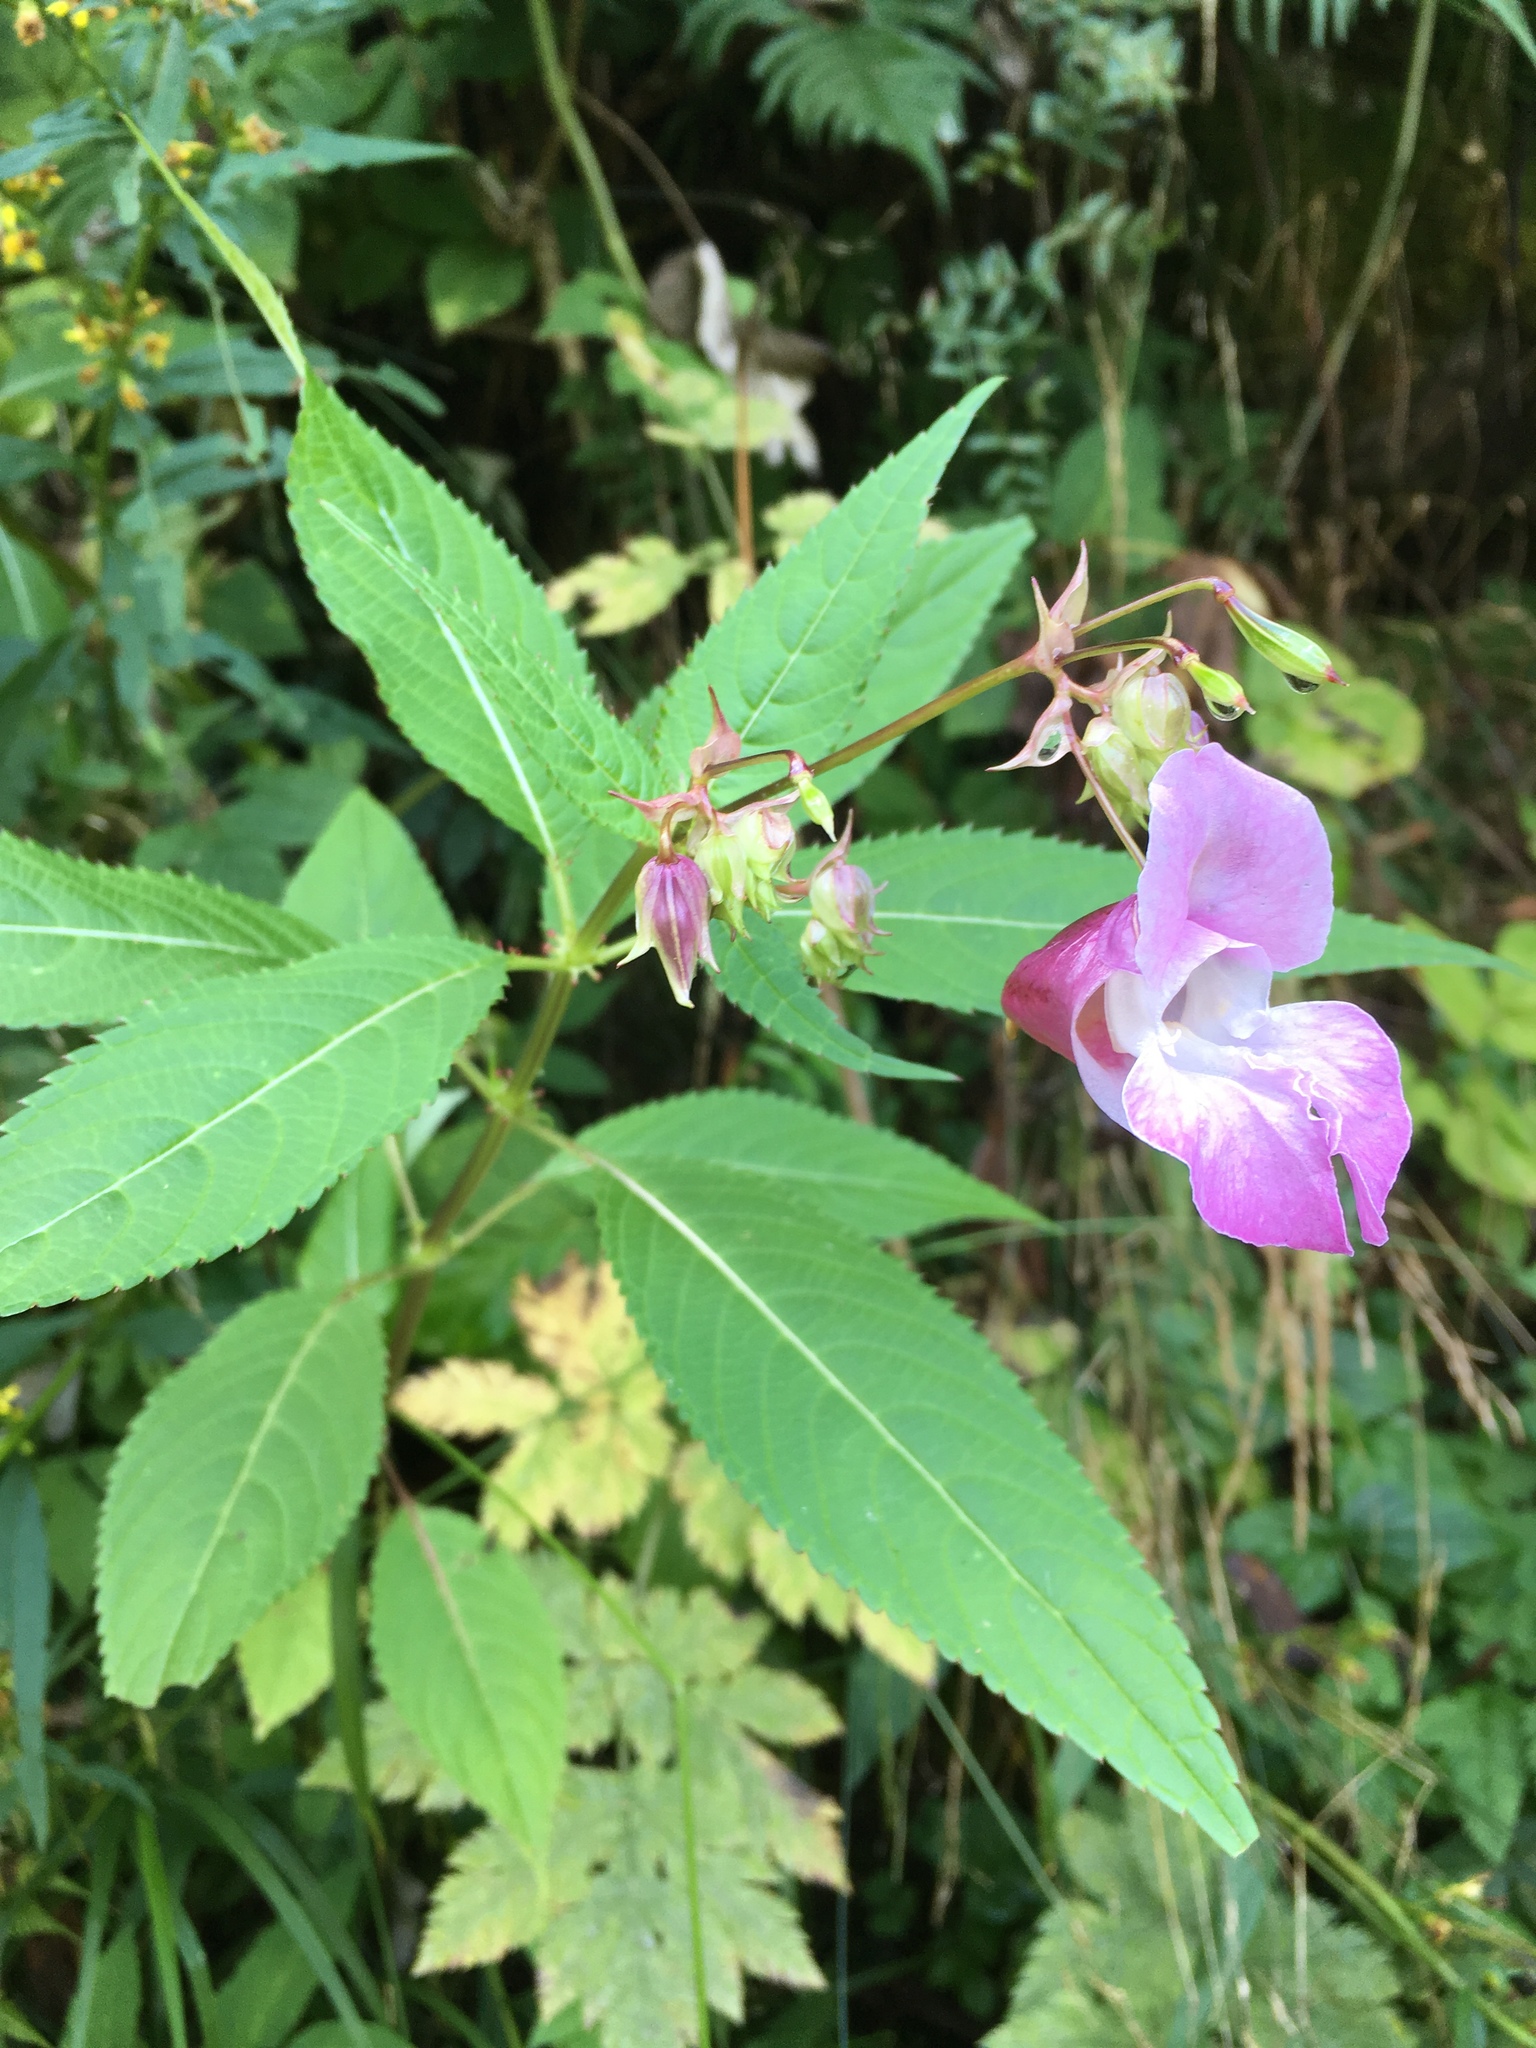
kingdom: Plantae
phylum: Tracheophyta
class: Magnoliopsida
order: Ericales
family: Balsaminaceae
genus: Impatiens
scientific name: Impatiens glandulifera
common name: Himalayan balsam
